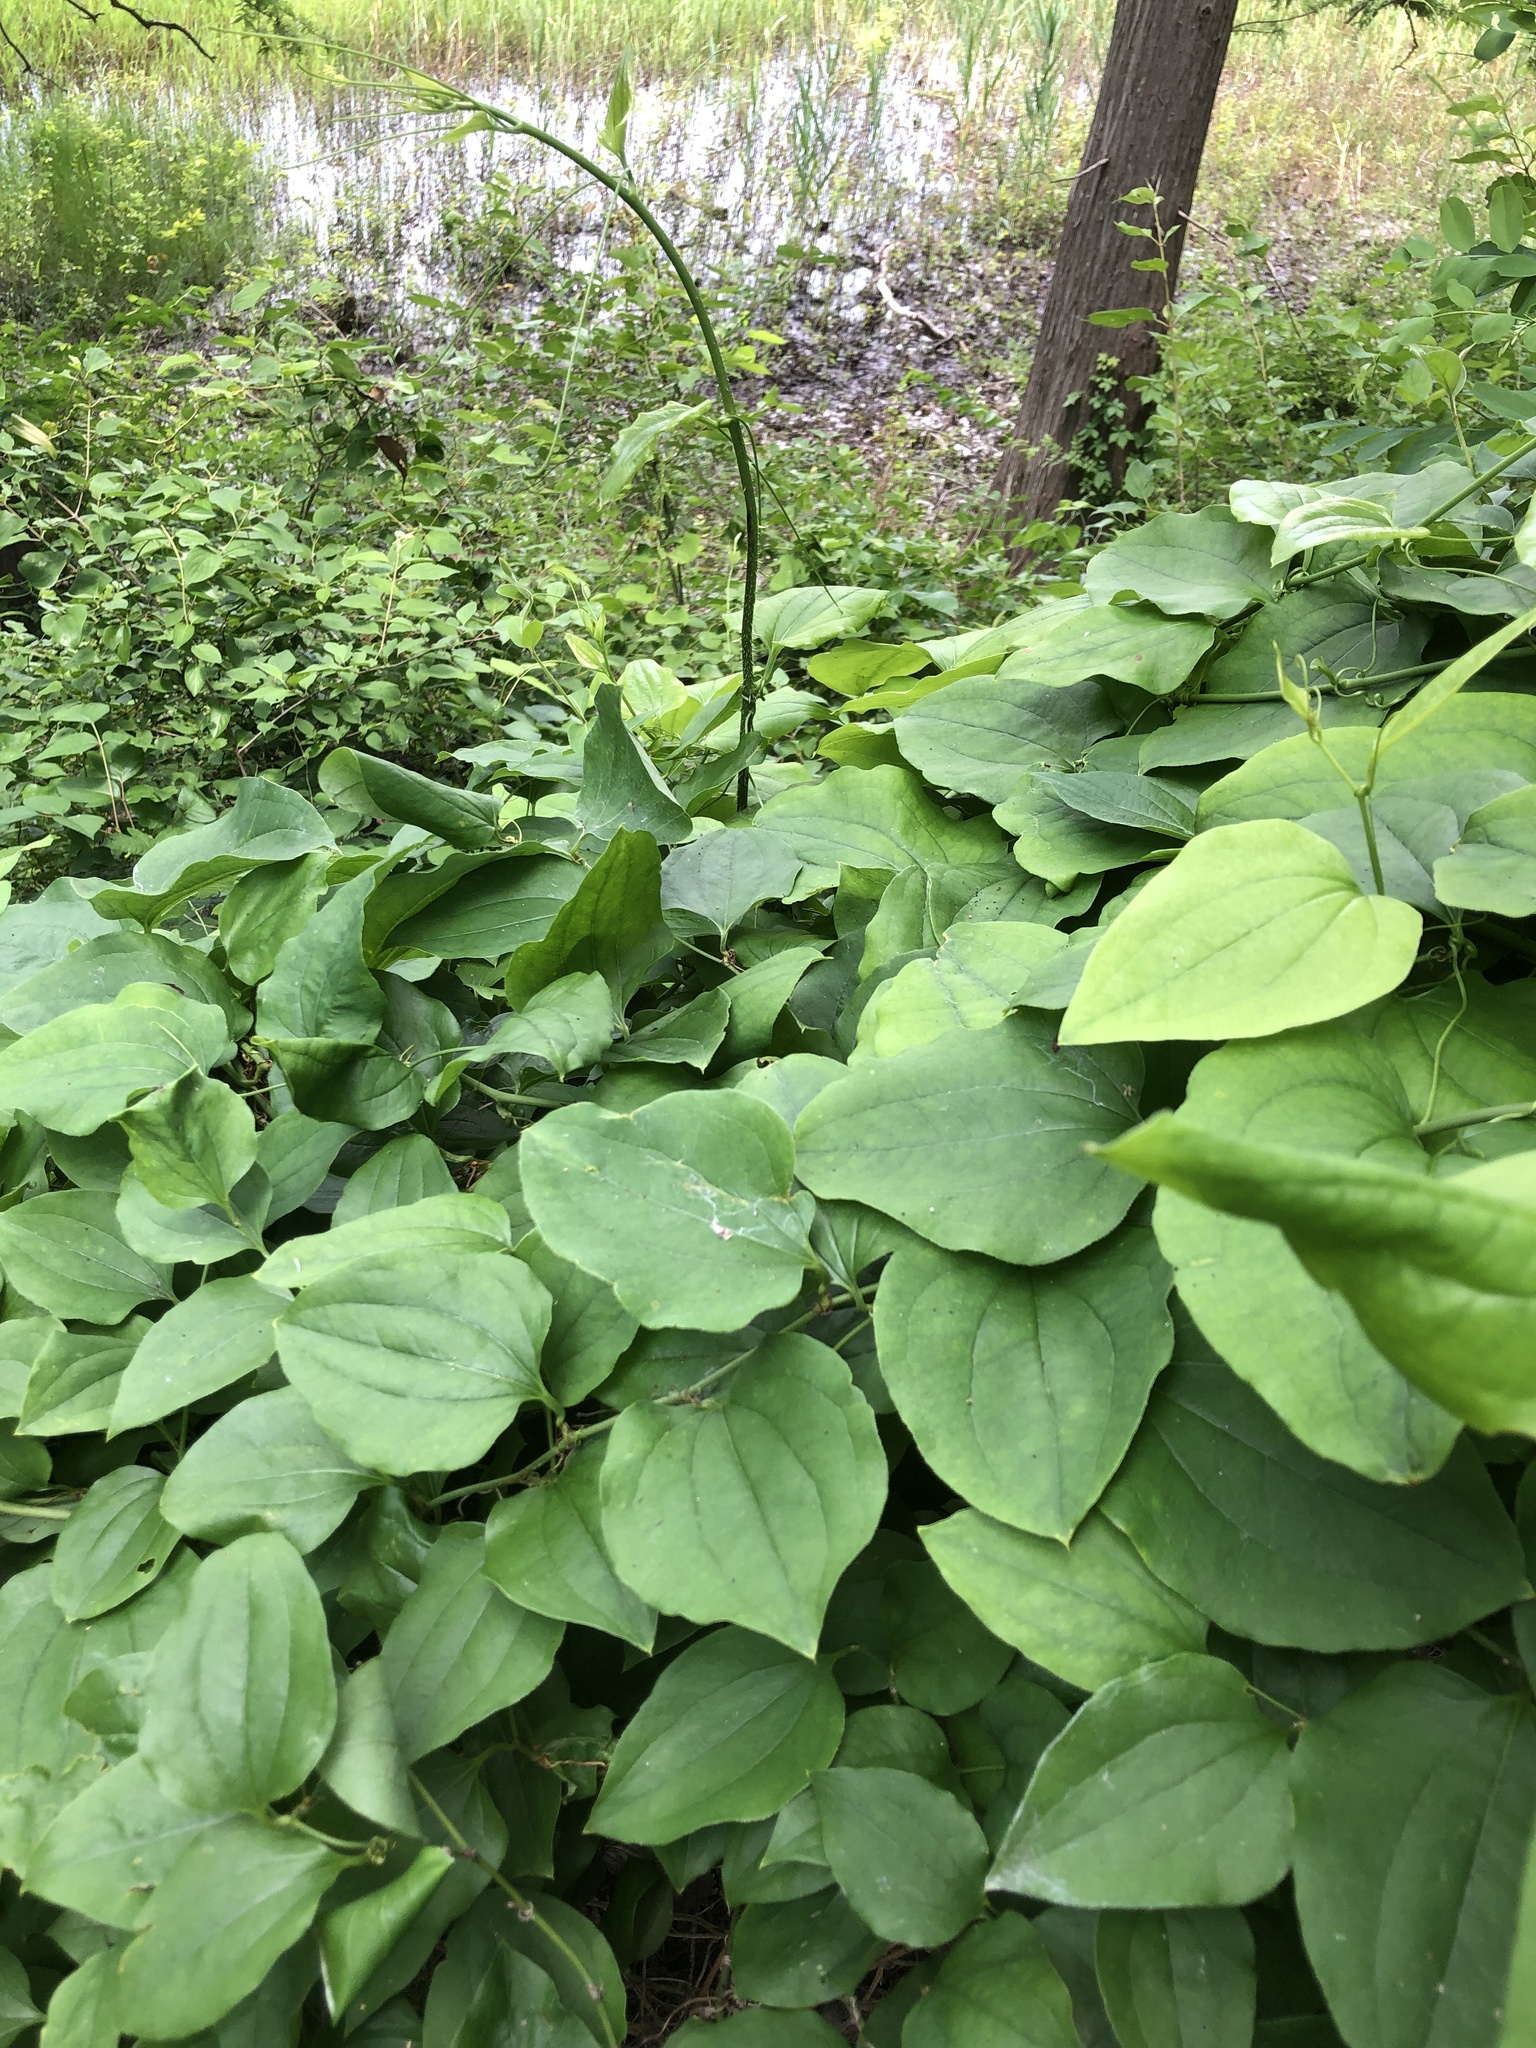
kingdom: Plantae
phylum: Tracheophyta
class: Liliopsida
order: Liliales
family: Smilacaceae
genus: Smilax
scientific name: Smilax tamnoides
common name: Hellfetter
